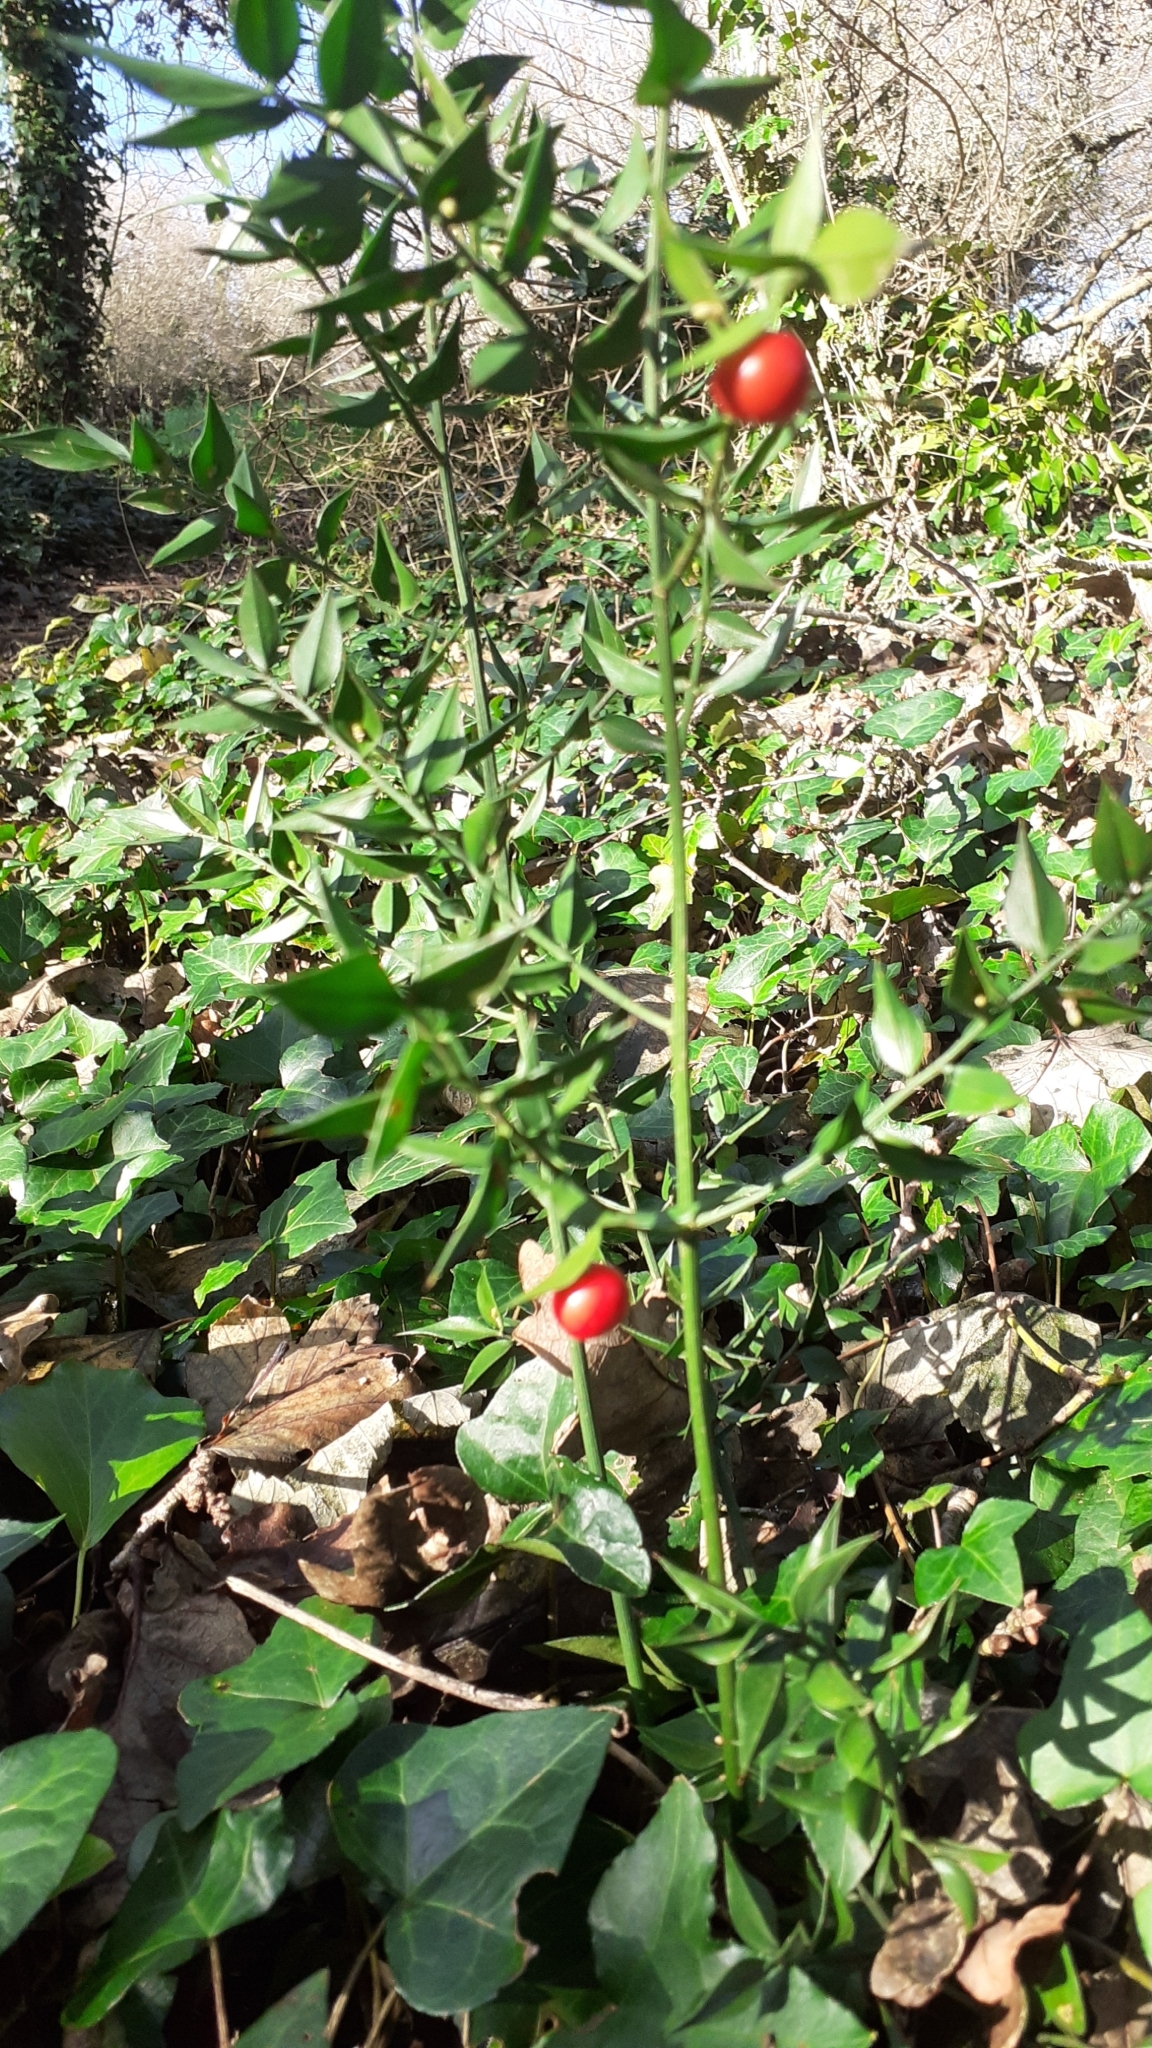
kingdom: Plantae
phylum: Tracheophyta
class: Liliopsida
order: Asparagales
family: Asparagaceae
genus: Ruscus
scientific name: Ruscus aculeatus
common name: Butcher's-broom
